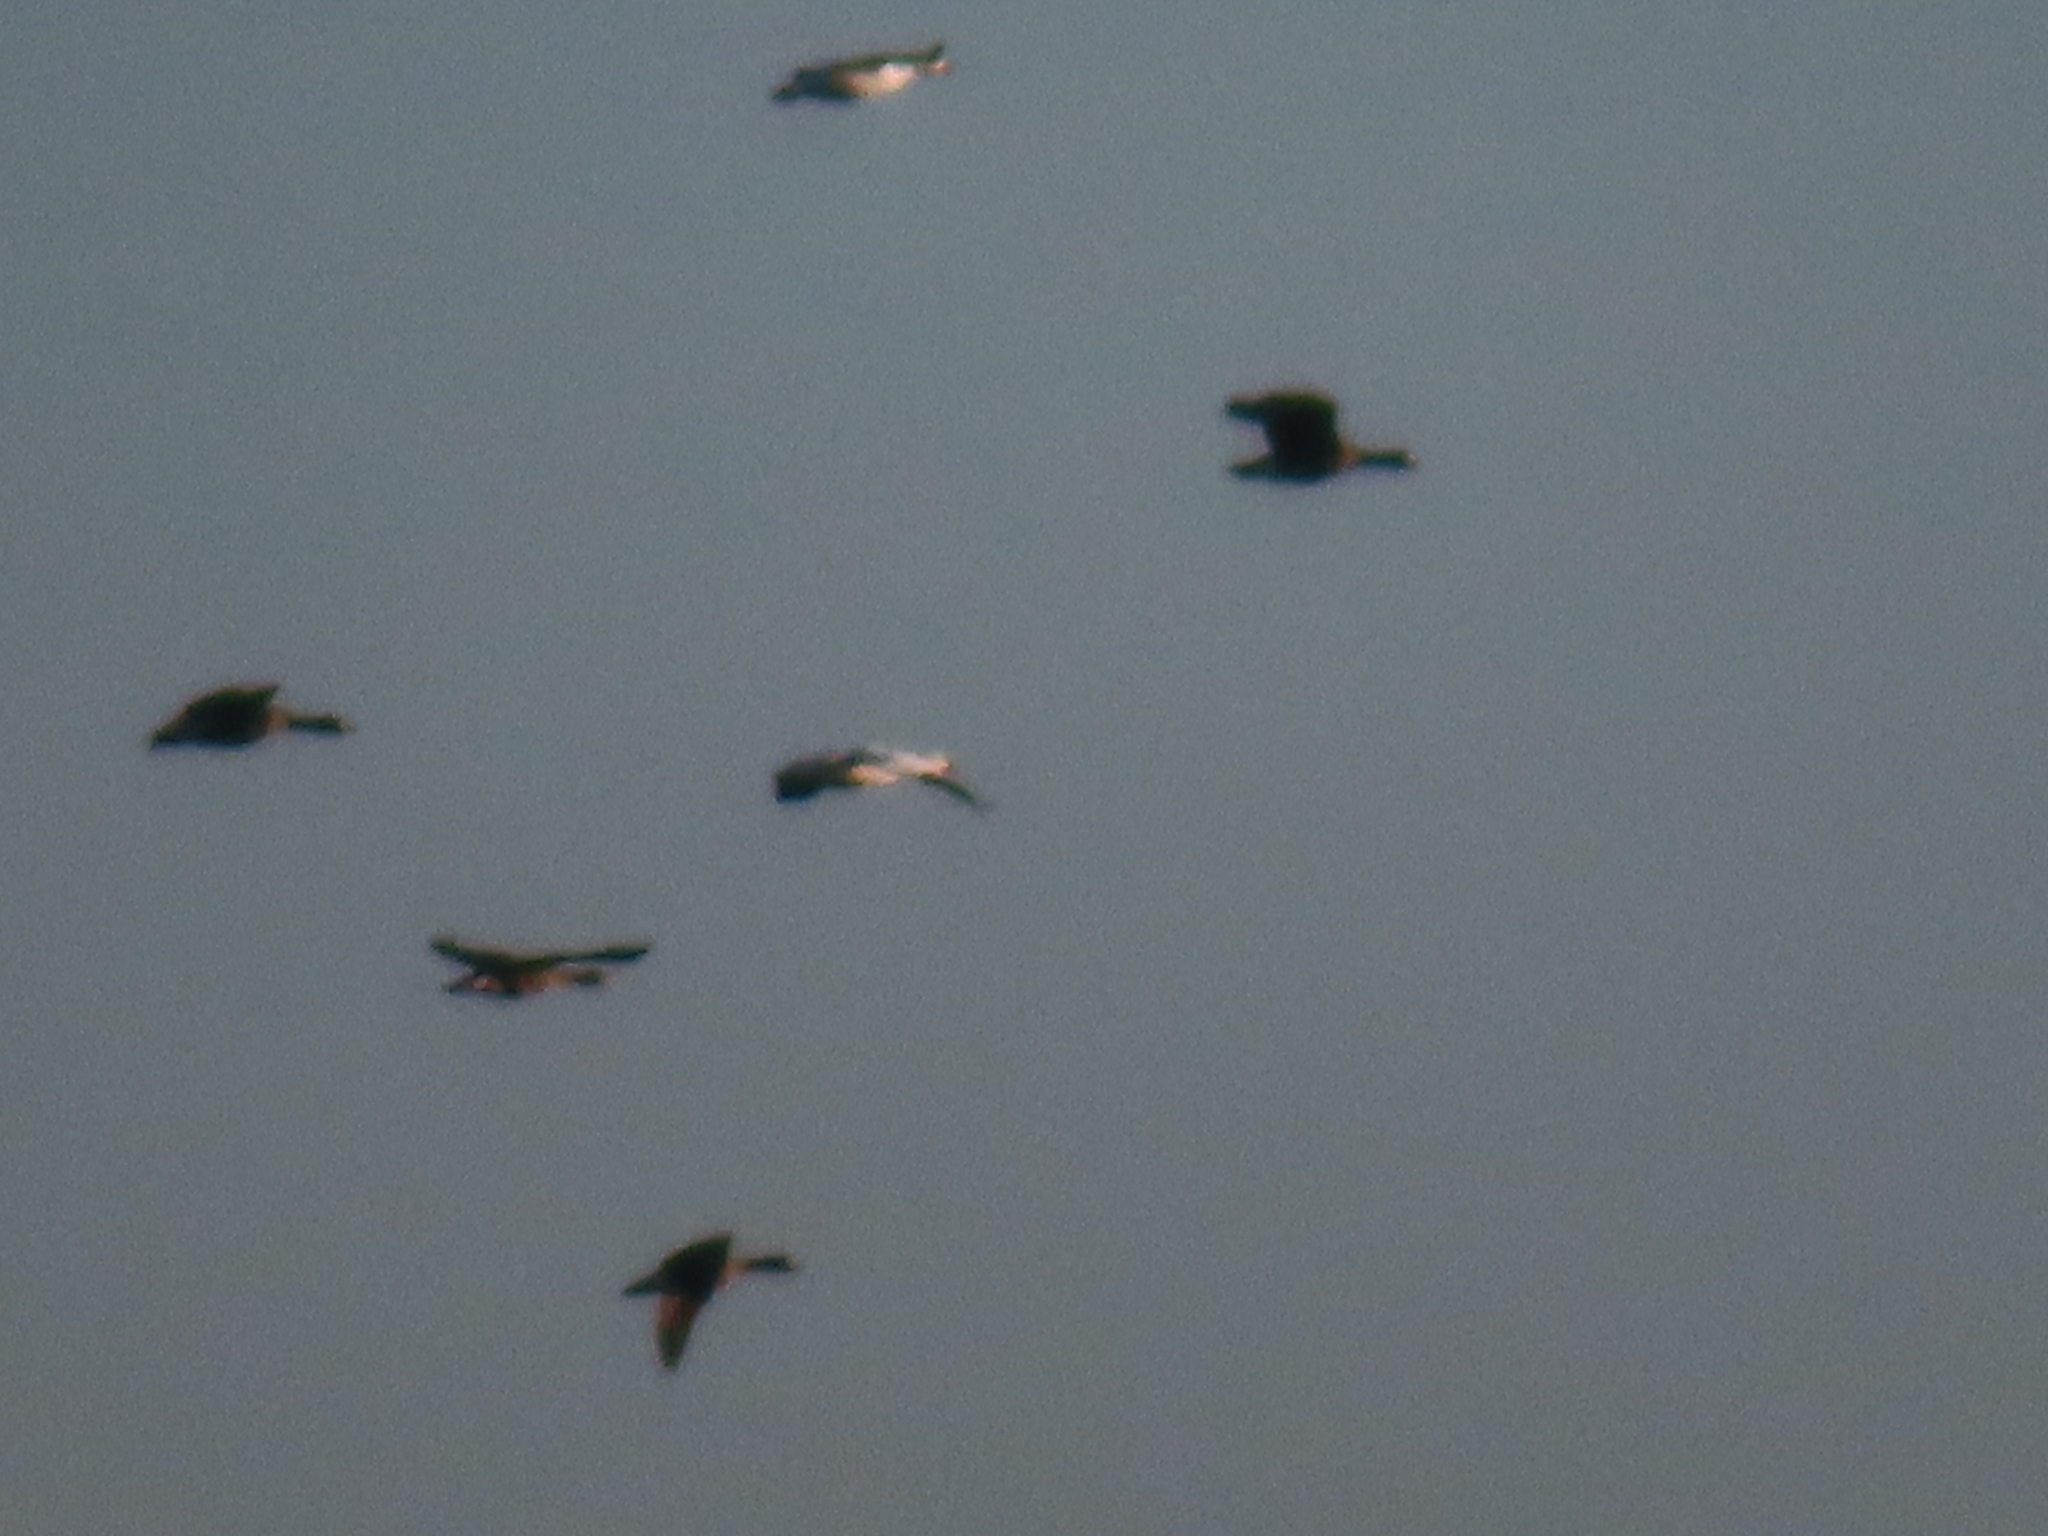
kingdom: Animalia
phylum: Chordata
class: Aves
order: Anseriformes
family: Anatidae
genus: Anser
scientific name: Anser caerulescens
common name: Snow goose
